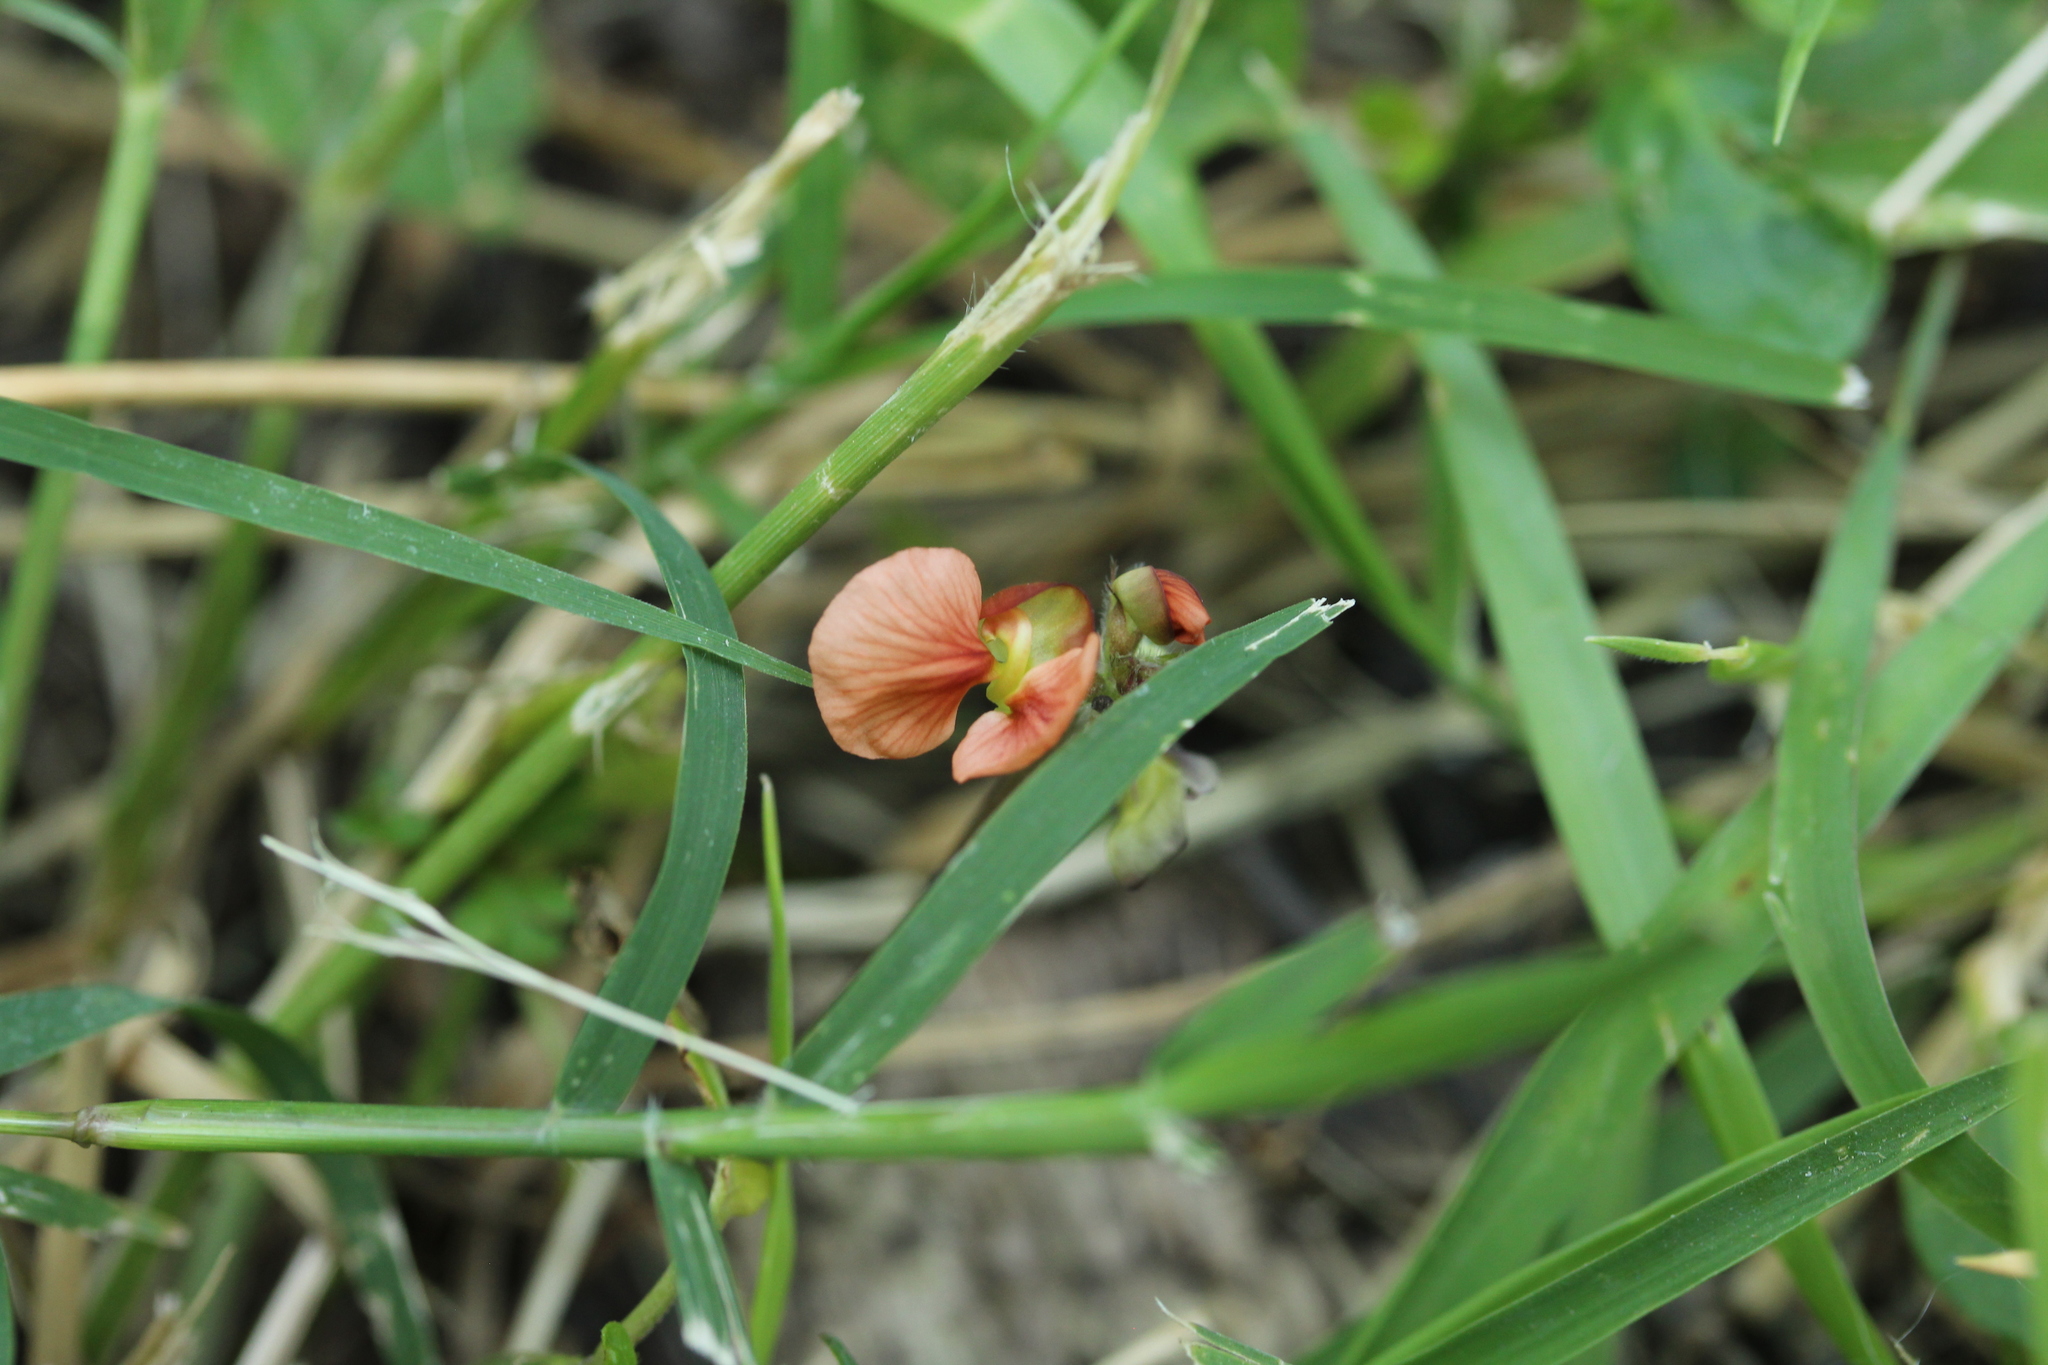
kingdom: Plantae
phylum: Tracheophyta
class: Magnoliopsida
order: Fabales
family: Fabaceae
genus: Macroptilium
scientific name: Macroptilium gibbosifolium
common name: Variableleaf bushbean
